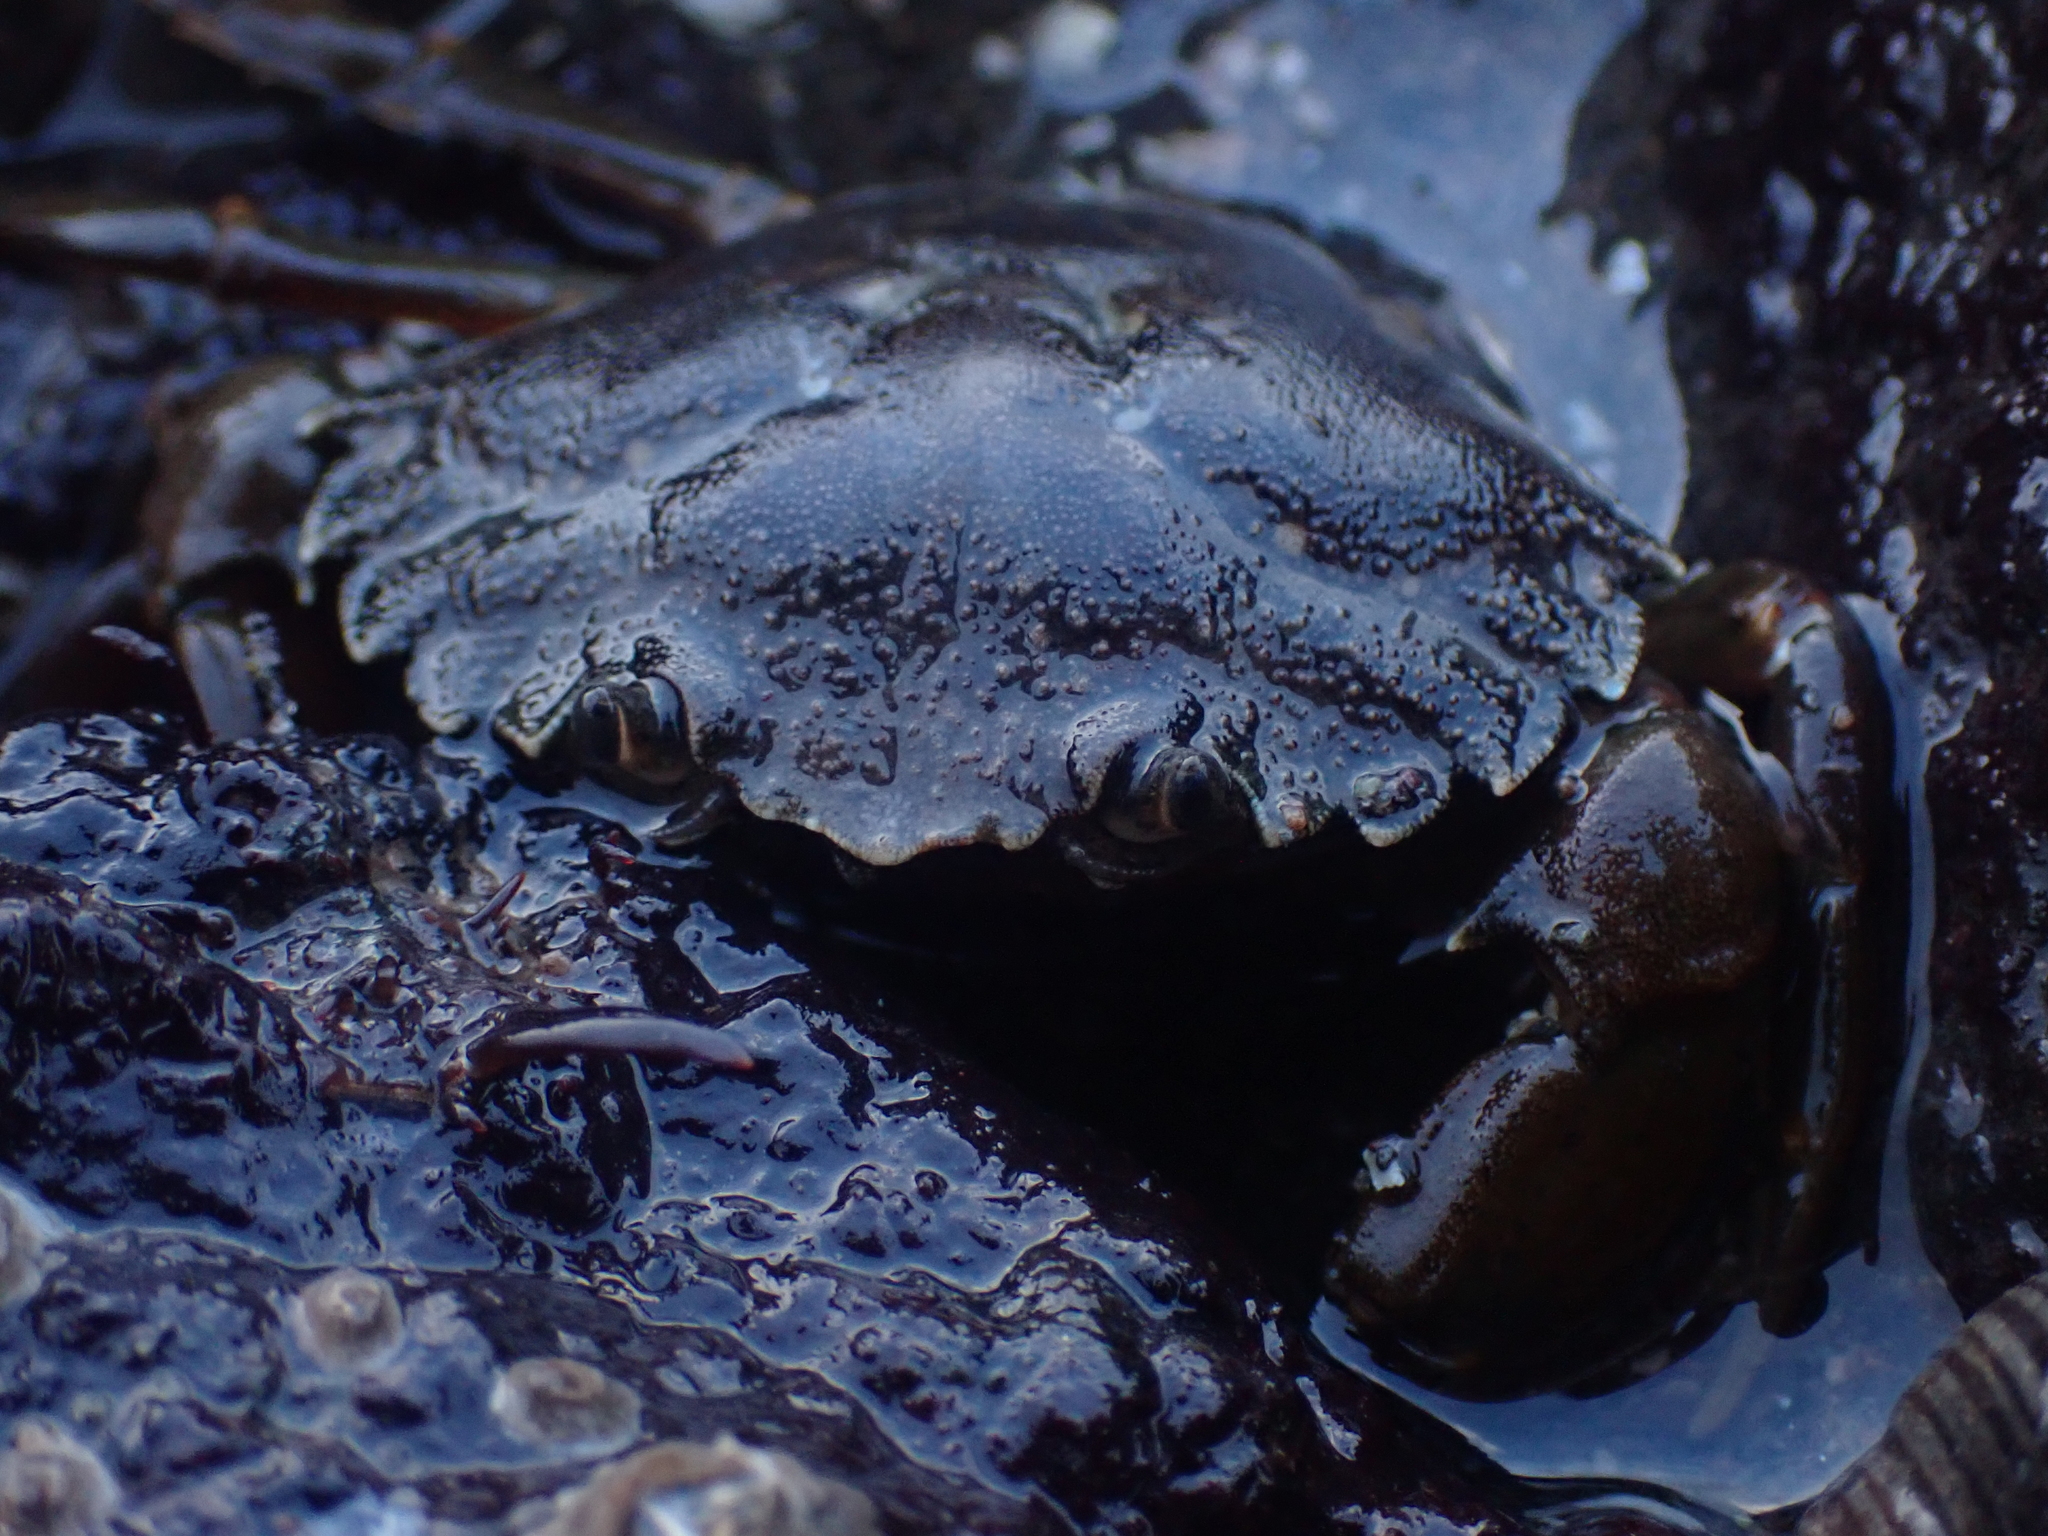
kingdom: Animalia
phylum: Arthropoda
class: Malacostraca
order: Decapoda
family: Carcinidae
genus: Carcinus
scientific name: Carcinus maenas
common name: European green crab
